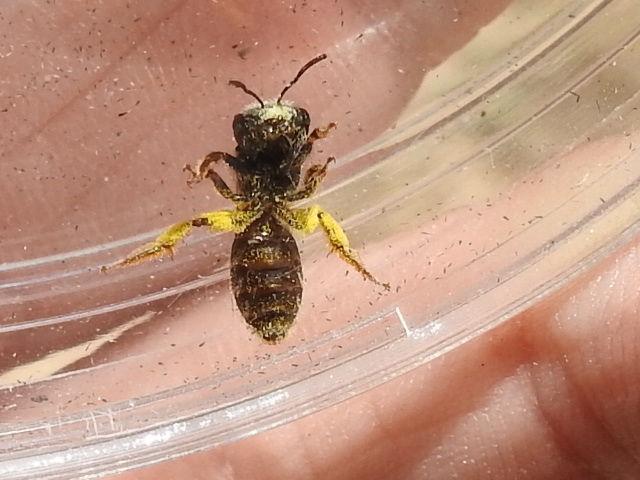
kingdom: Animalia
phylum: Arthropoda
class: Insecta
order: Hymenoptera
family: Halictidae
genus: Halictus
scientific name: Halictus ligatus
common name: Ligated furrow bee
